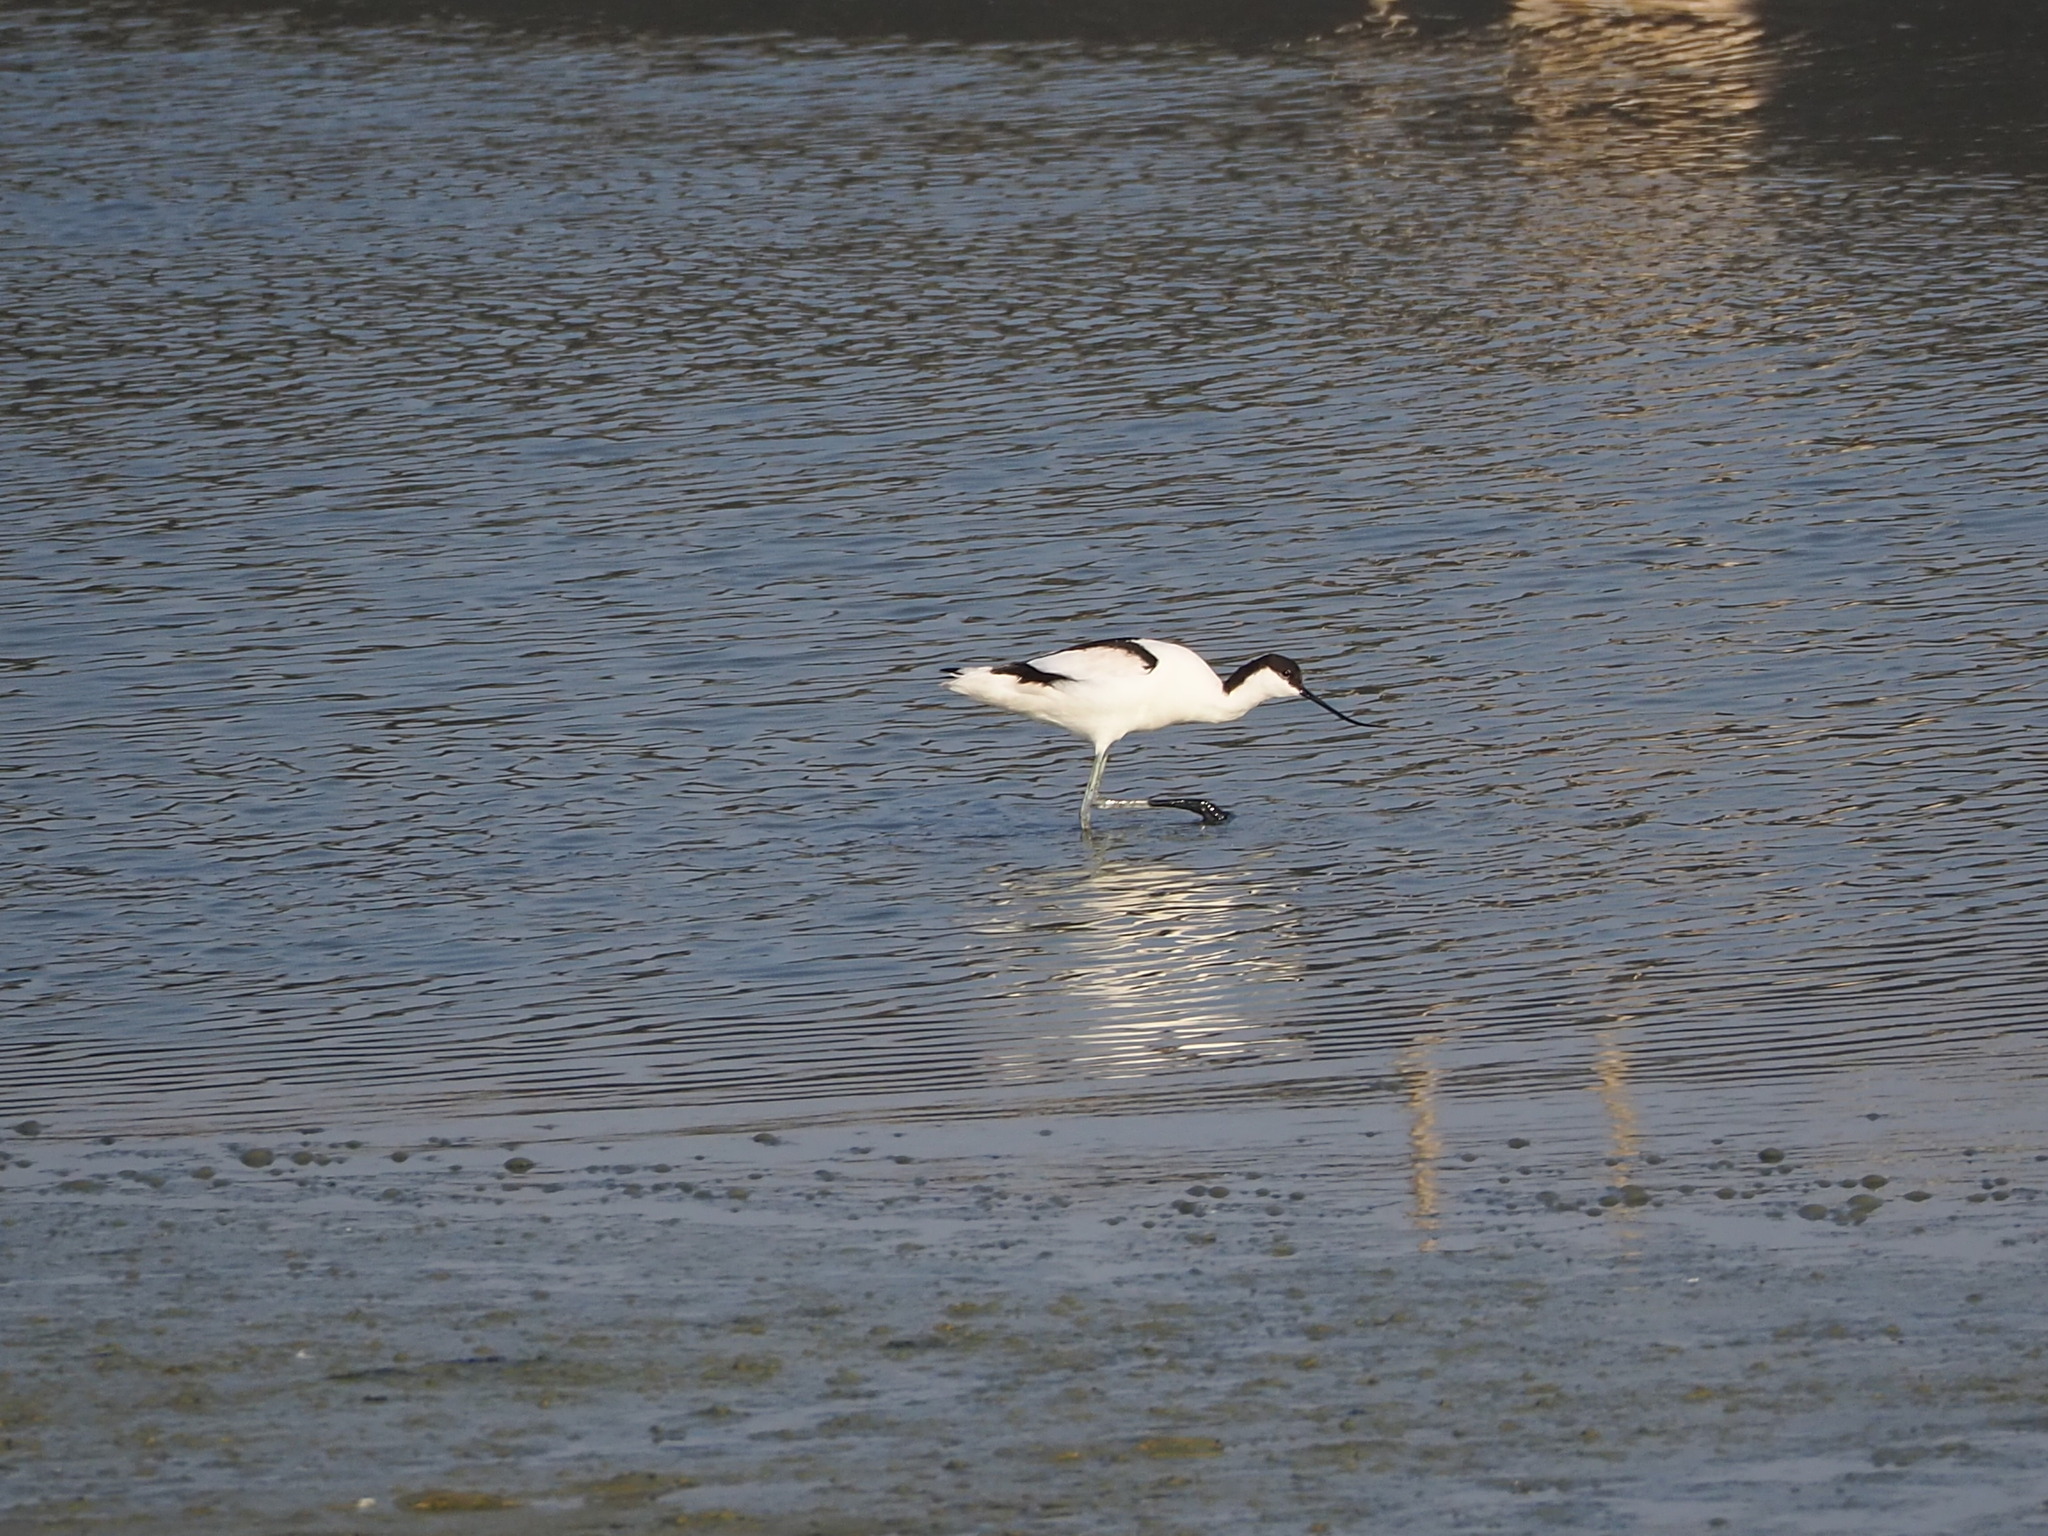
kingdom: Animalia
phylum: Chordata
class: Aves
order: Charadriiformes
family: Recurvirostridae
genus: Recurvirostra
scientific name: Recurvirostra avosetta
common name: Pied avocet
